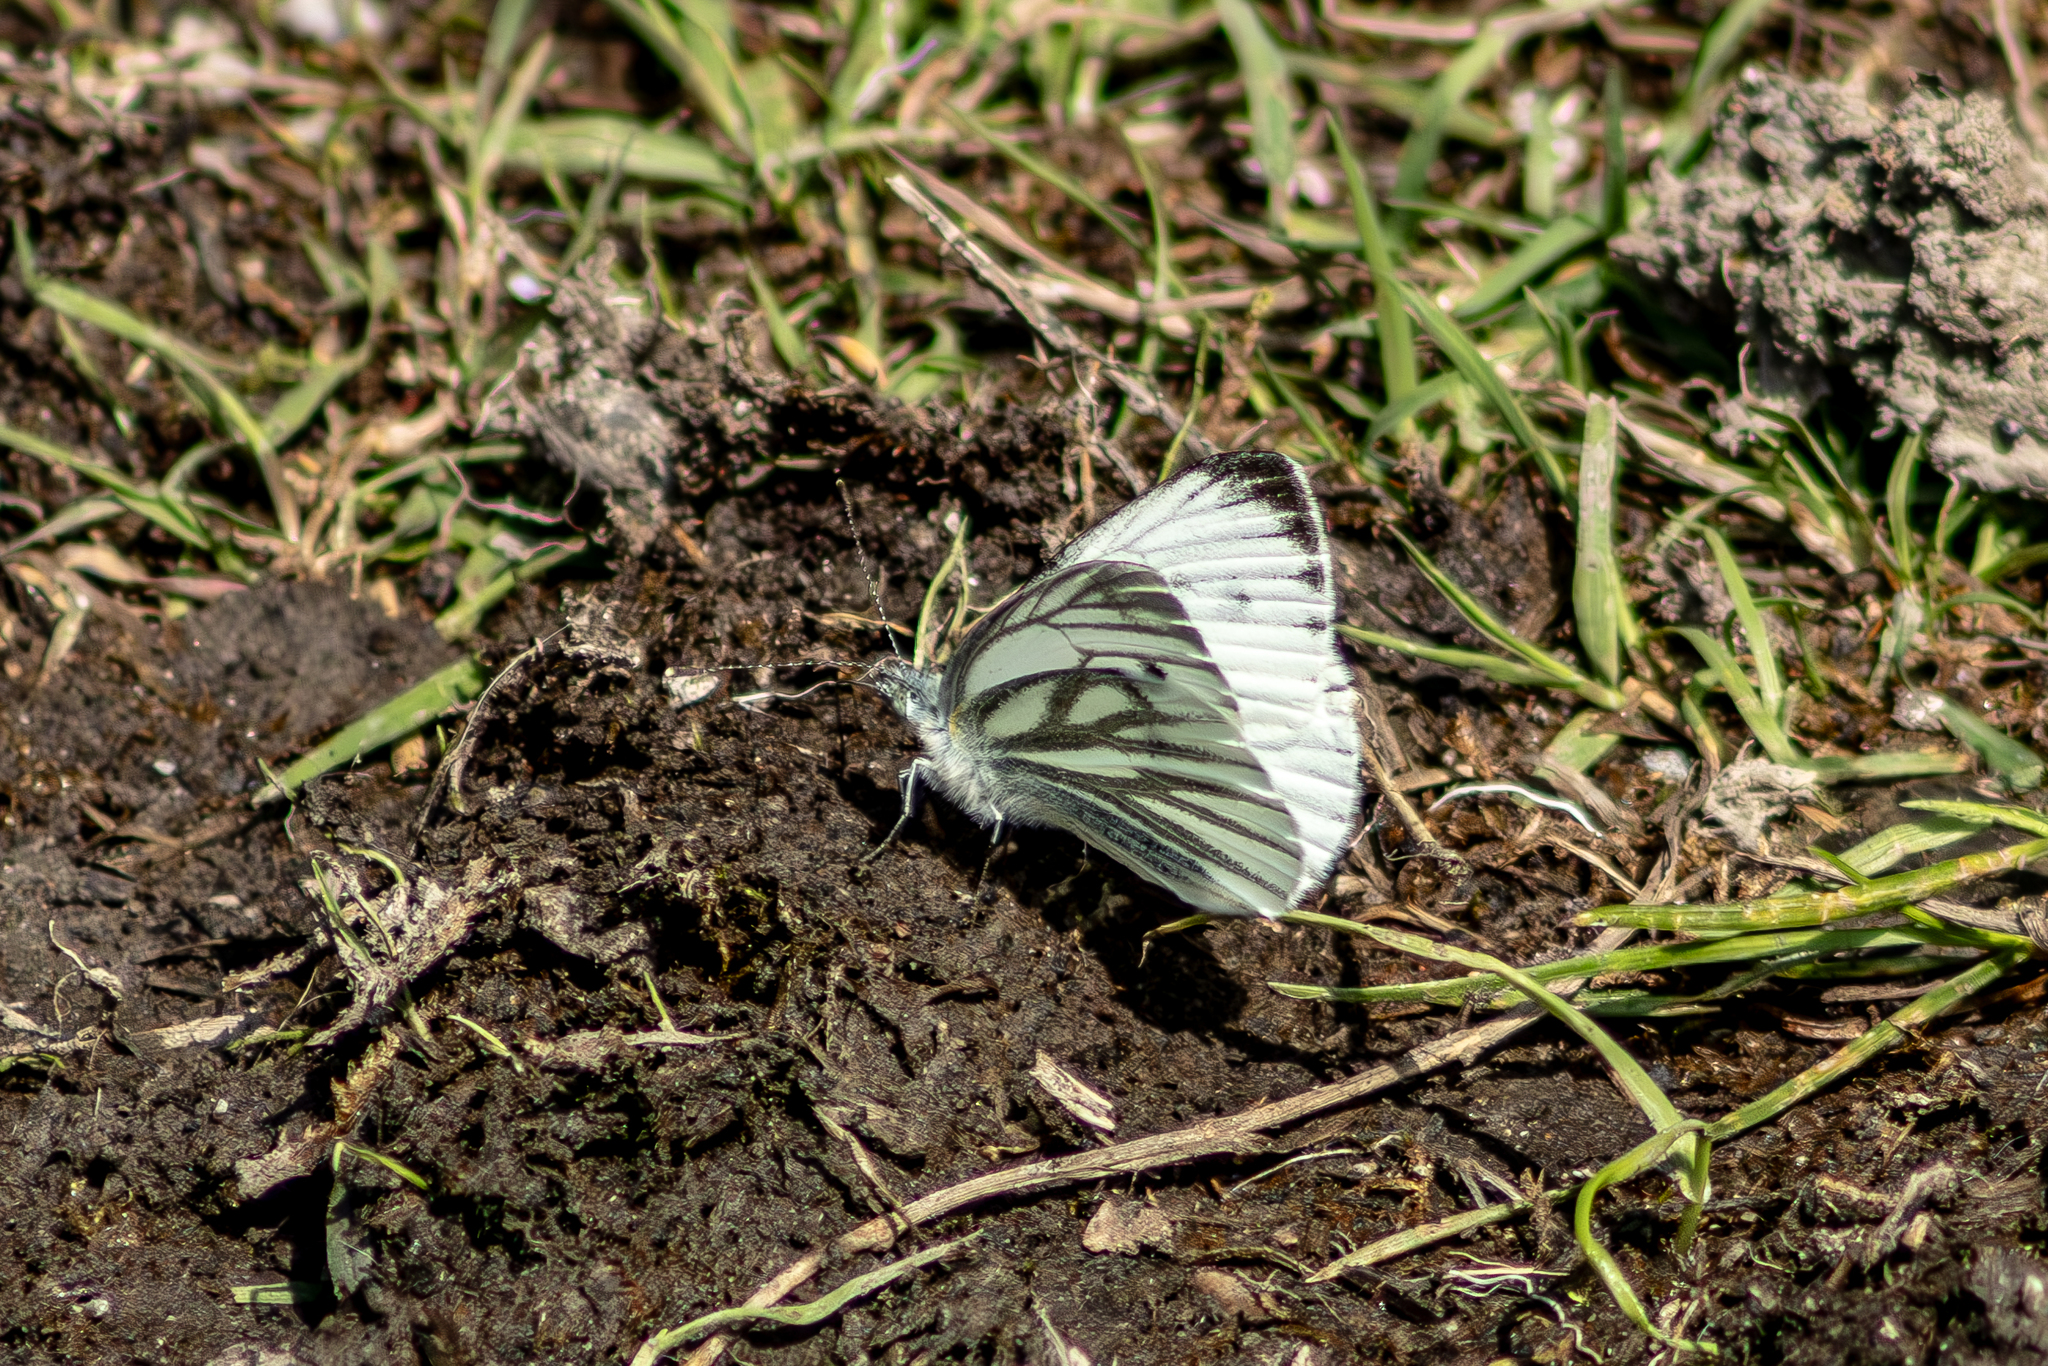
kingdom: Animalia
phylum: Arthropoda
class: Insecta
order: Lepidoptera
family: Pieridae
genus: Pieris
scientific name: Pieris napi
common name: Green-veined white
